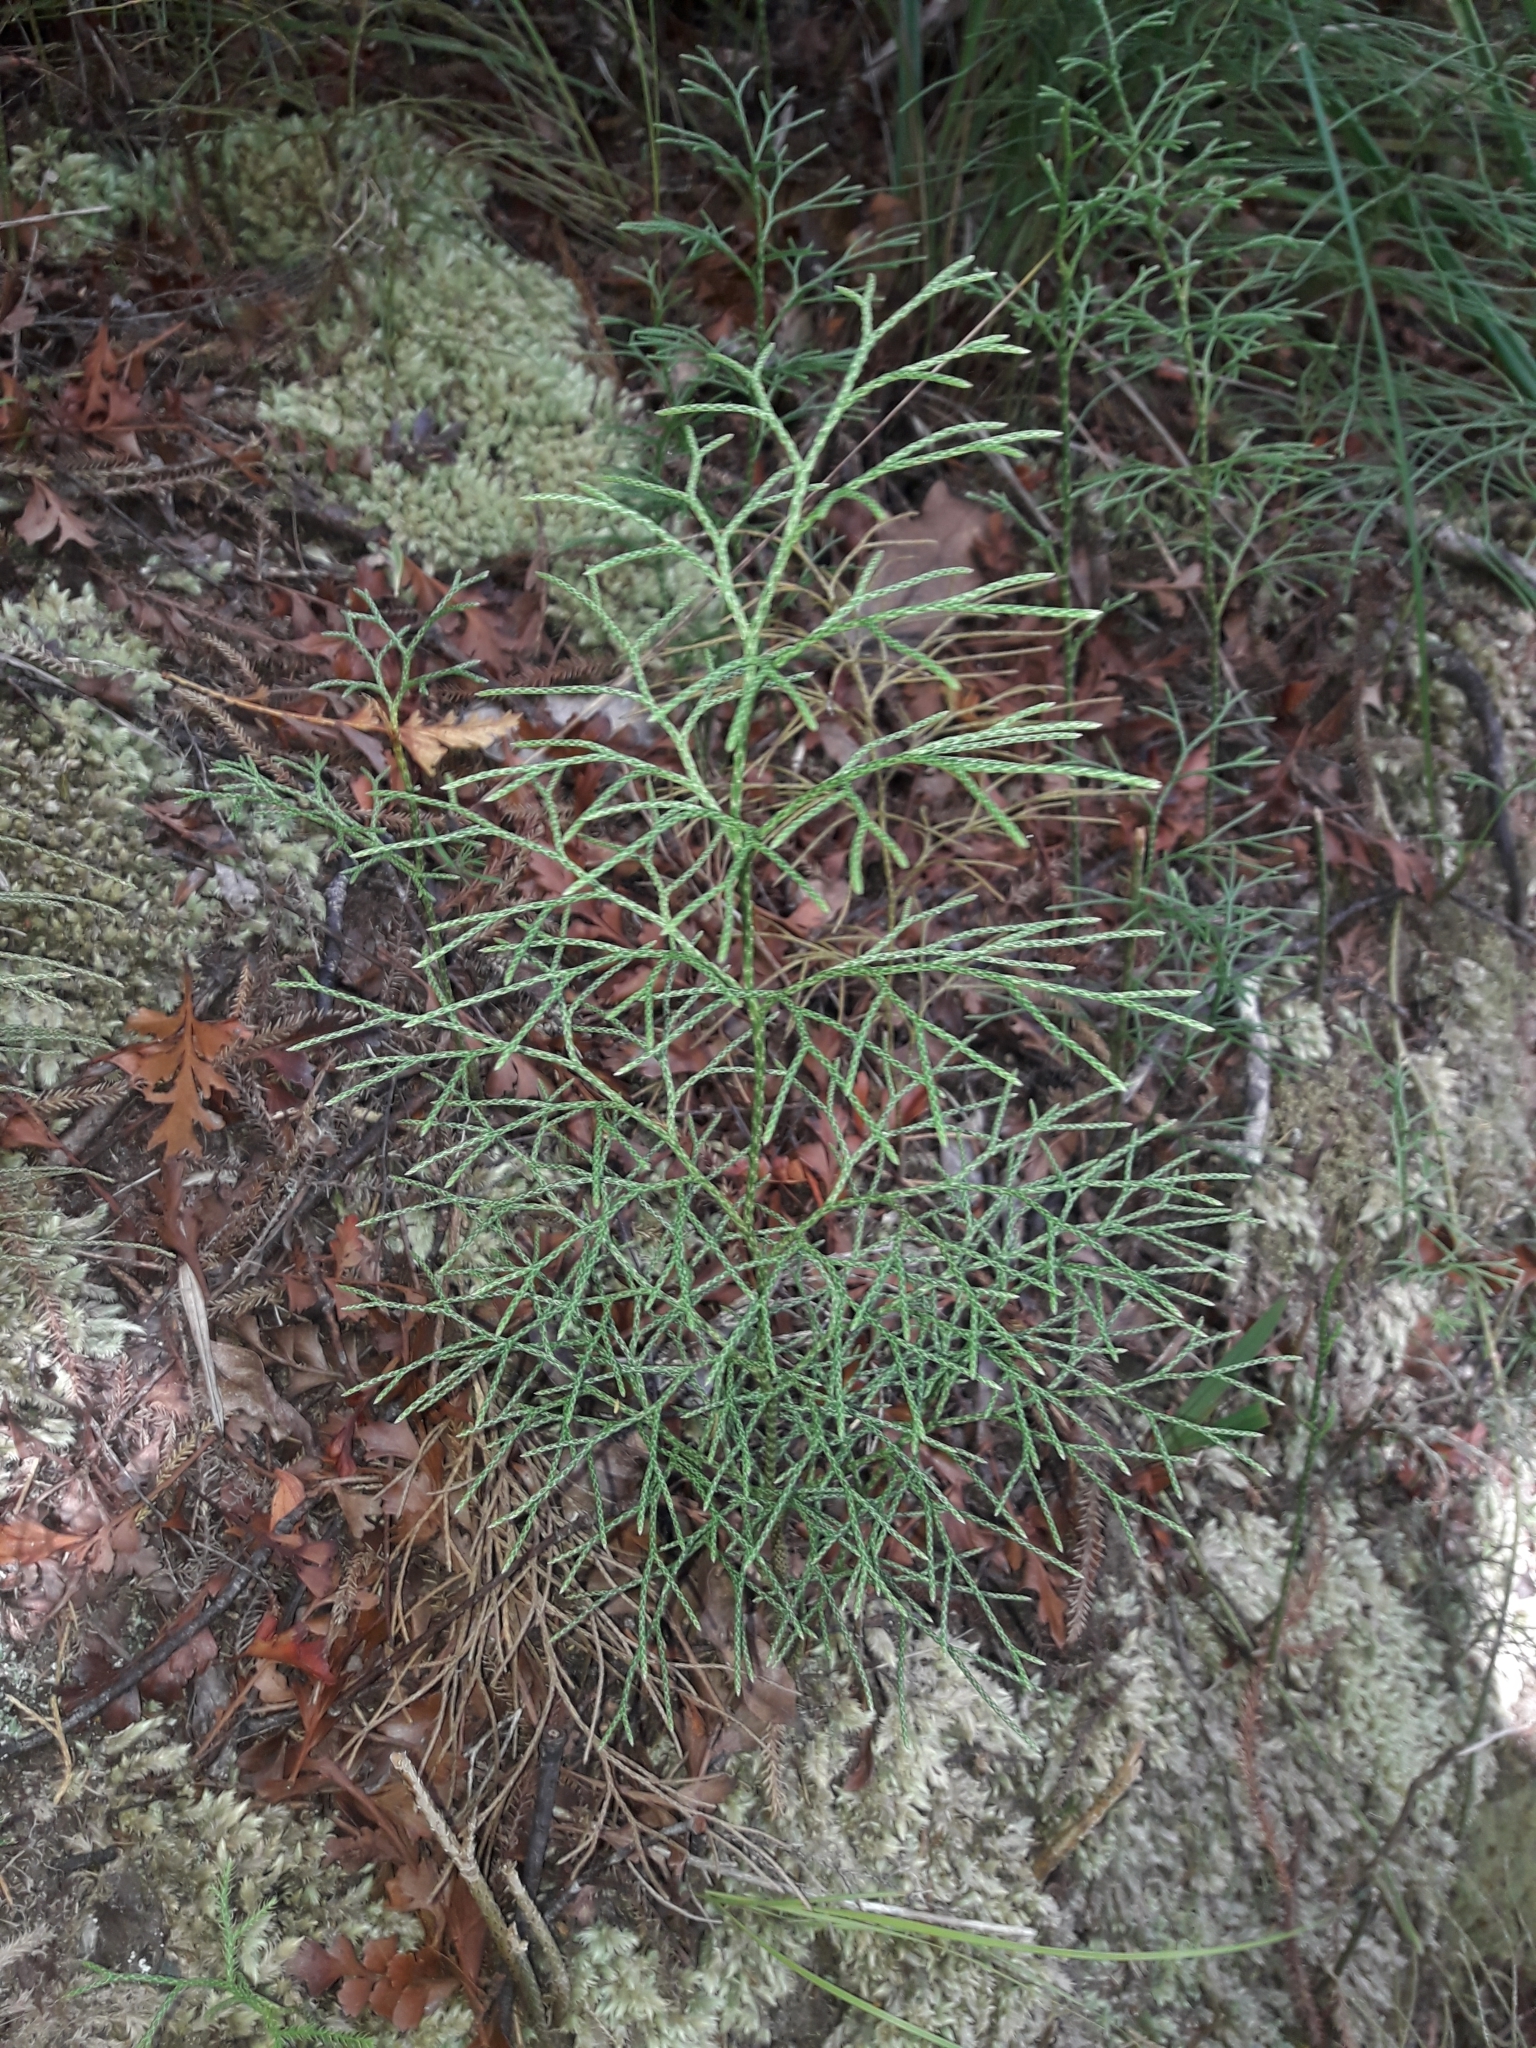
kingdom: Plantae
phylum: Tracheophyta
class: Lycopodiopsida
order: Lycopodiales
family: Lycopodiaceae
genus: Pseudolycopodium
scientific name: Pseudolycopodium densum
